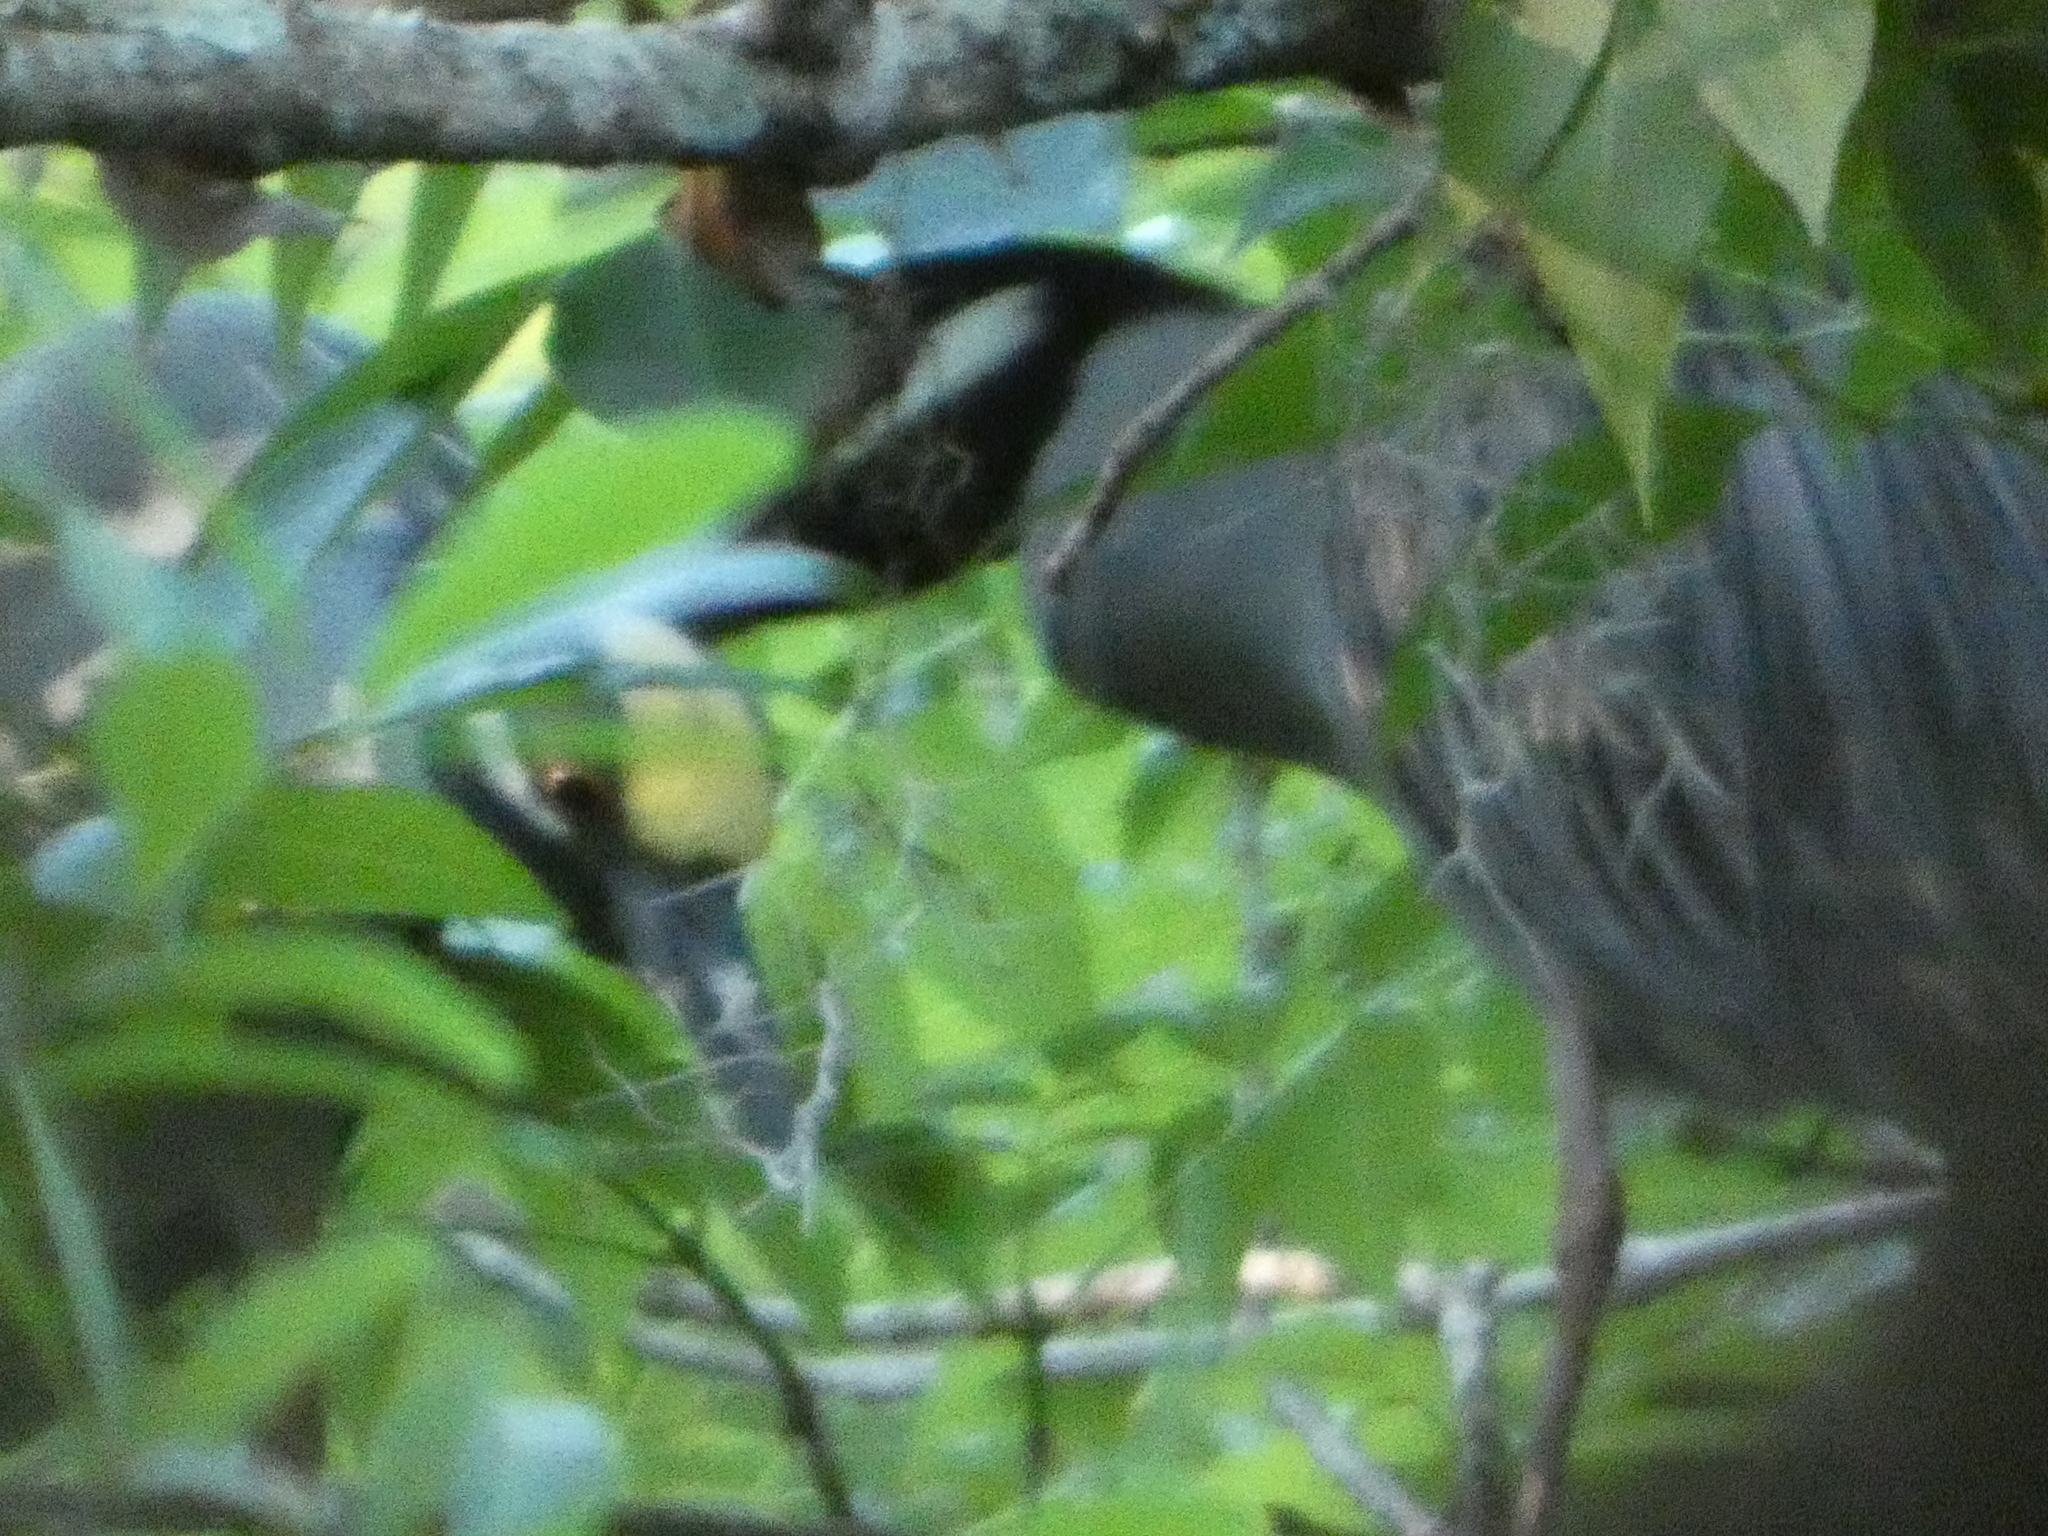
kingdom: Animalia
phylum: Chordata
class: Aves
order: Pelecaniformes
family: Ardeidae
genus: Nyctanassa
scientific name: Nyctanassa violacea
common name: Yellow-crowned night heron
